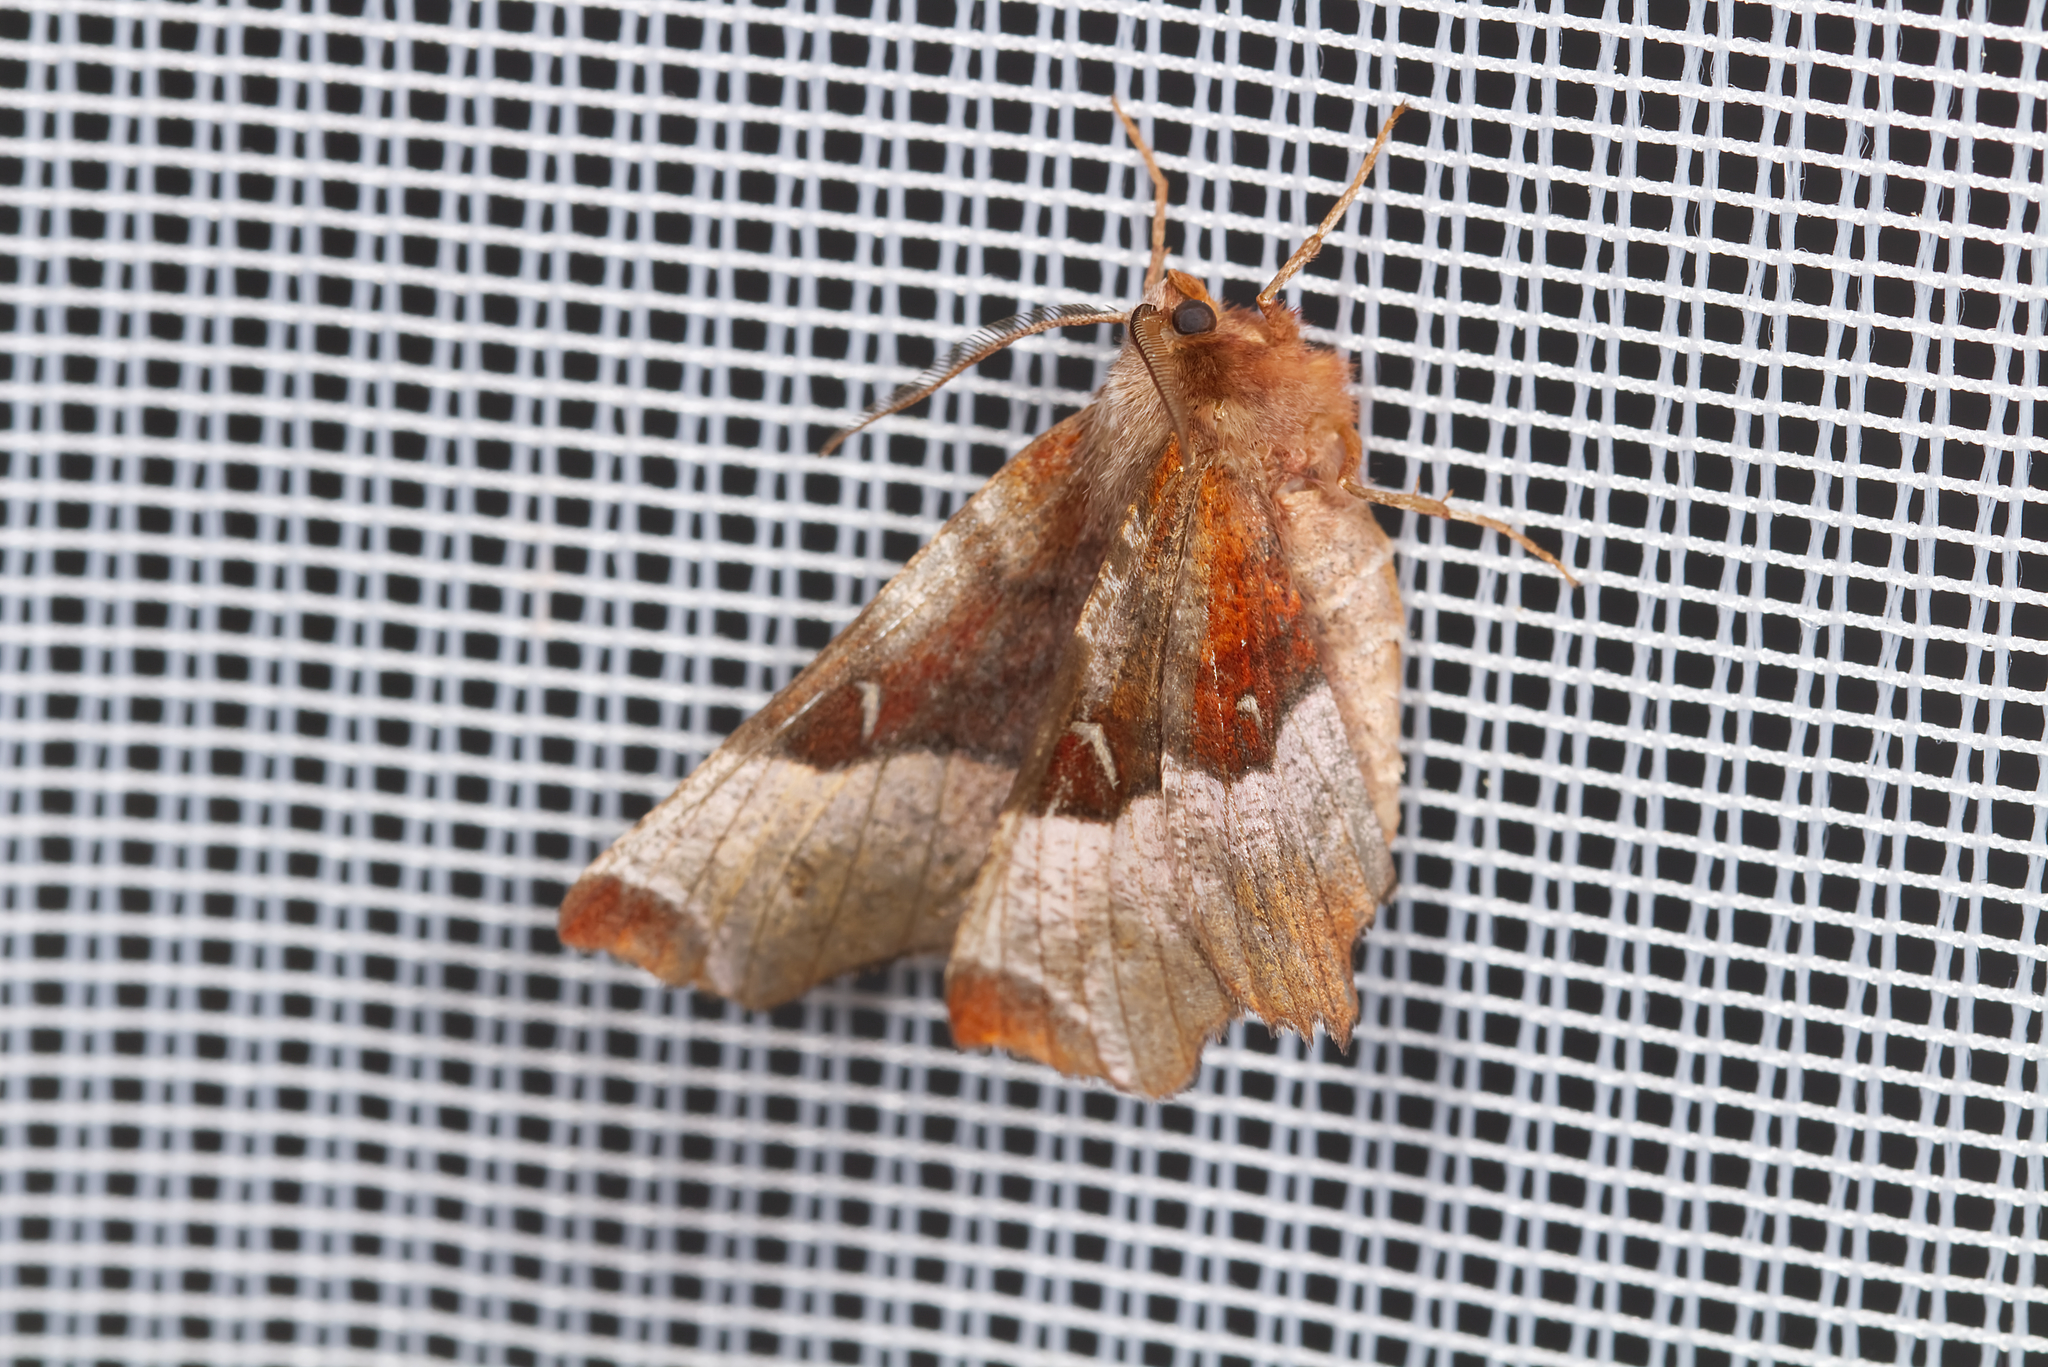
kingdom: Animalia
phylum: Arthropoda
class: Insecta
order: Lepidoptera
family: Geometridae
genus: Selenia
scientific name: Selenia tetralunaria
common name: Purple thorn
